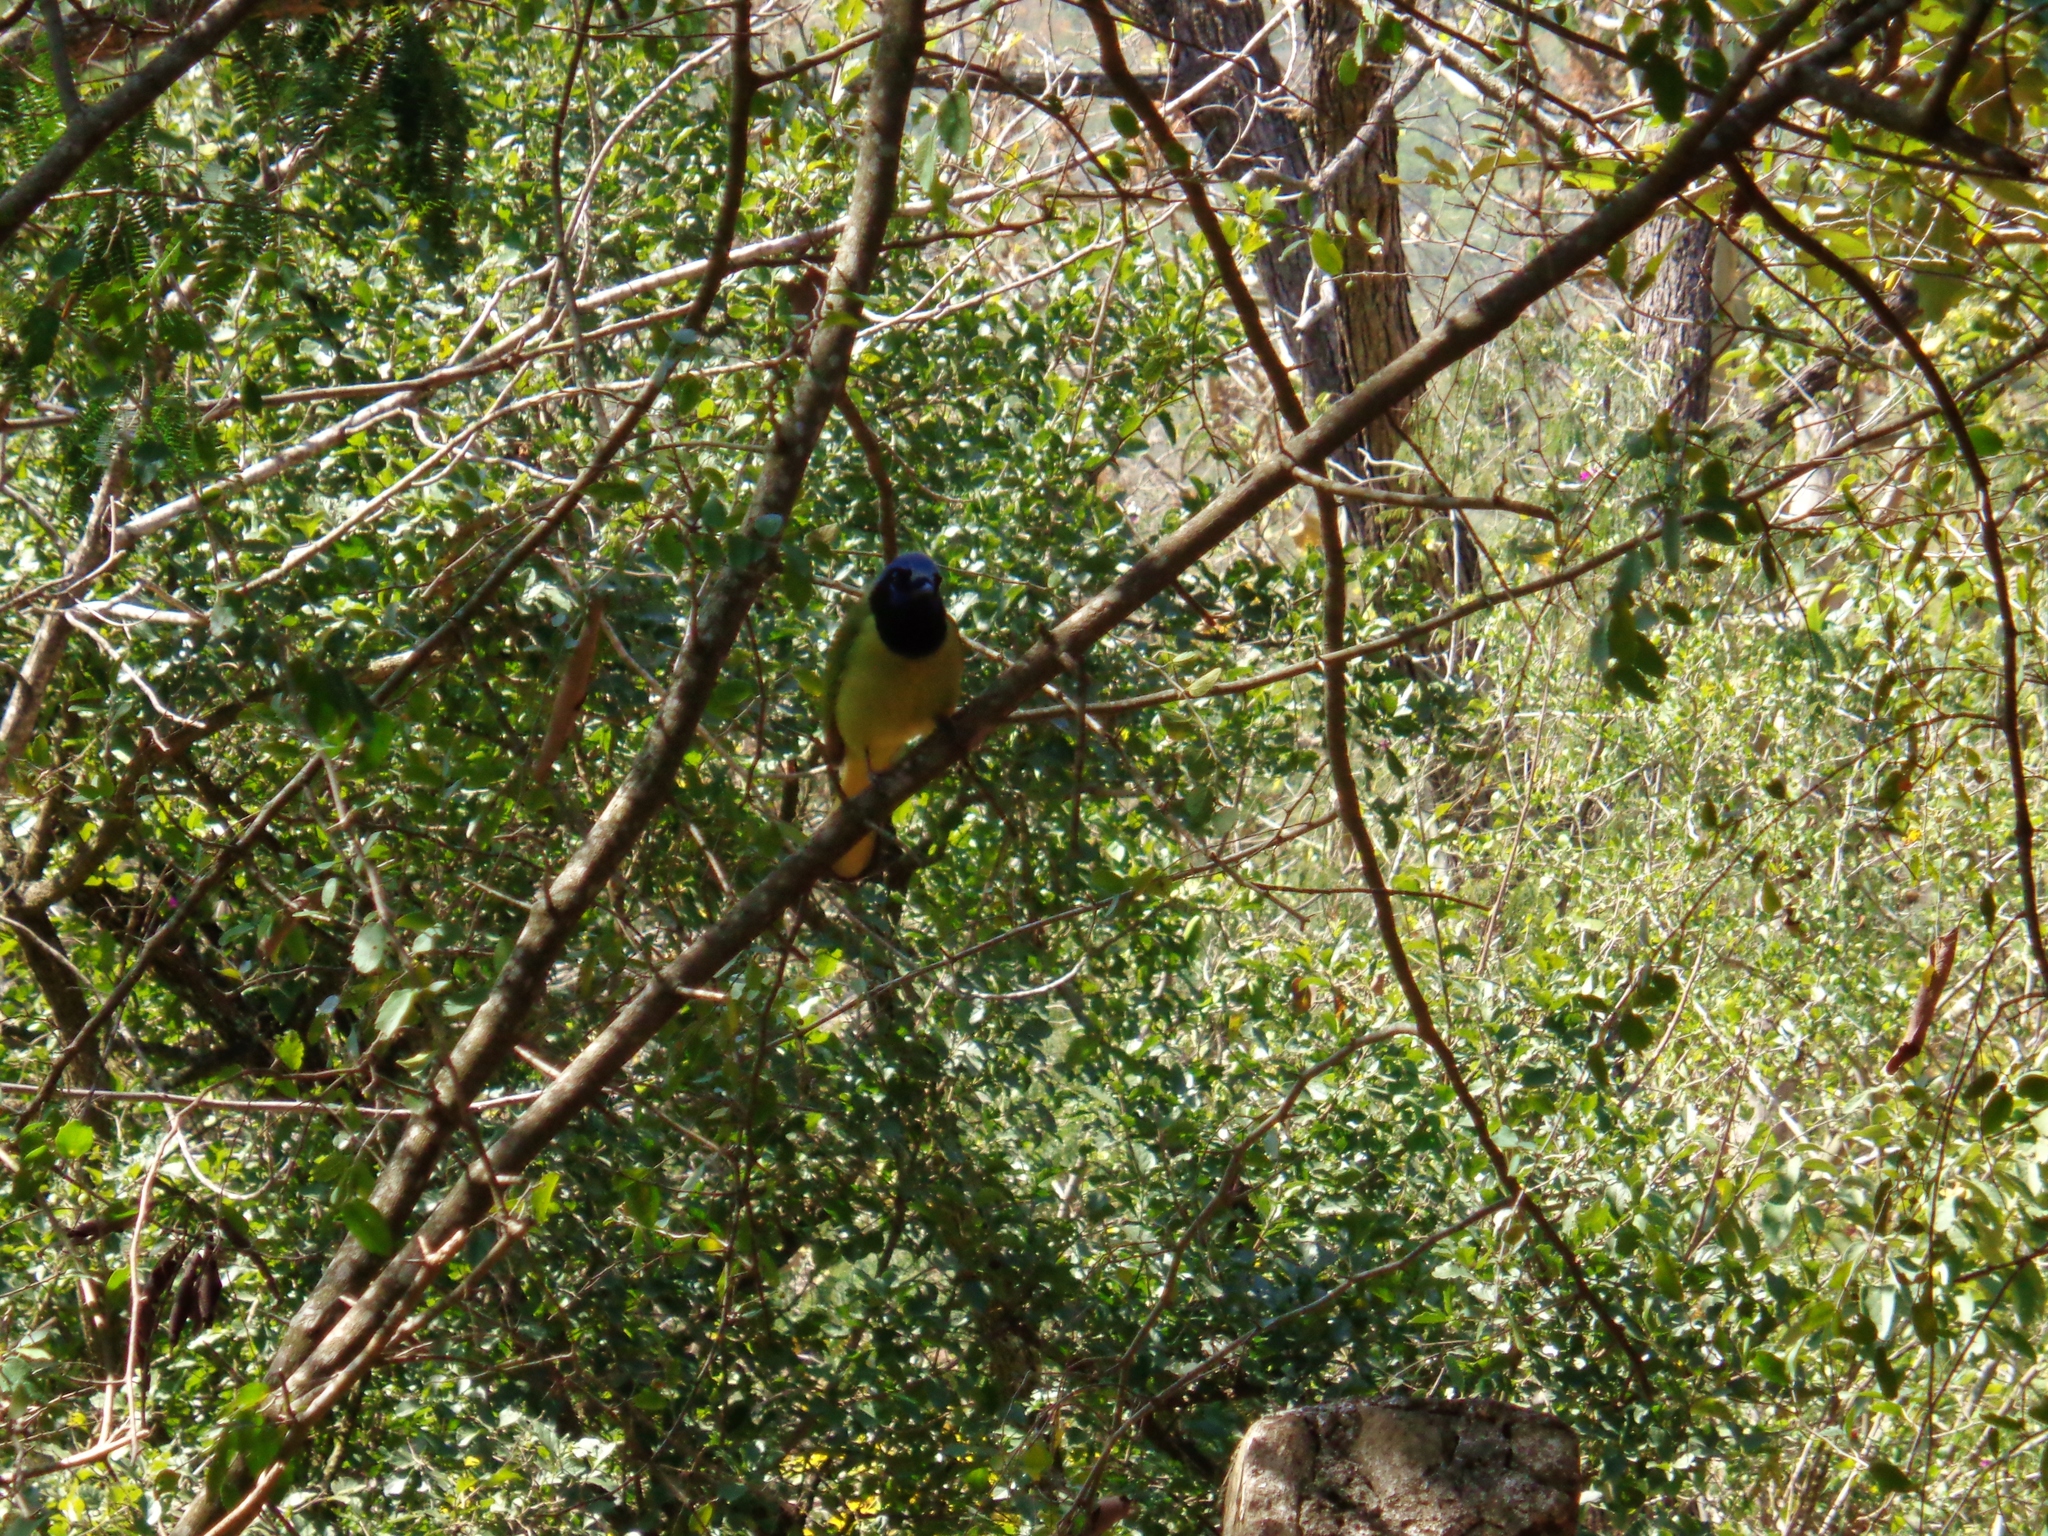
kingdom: Animalia
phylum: Chordata
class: Aves
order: Passeriformes
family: Corvidae
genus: Cyanocorax
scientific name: Cyanocorax yncas
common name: Green jay
